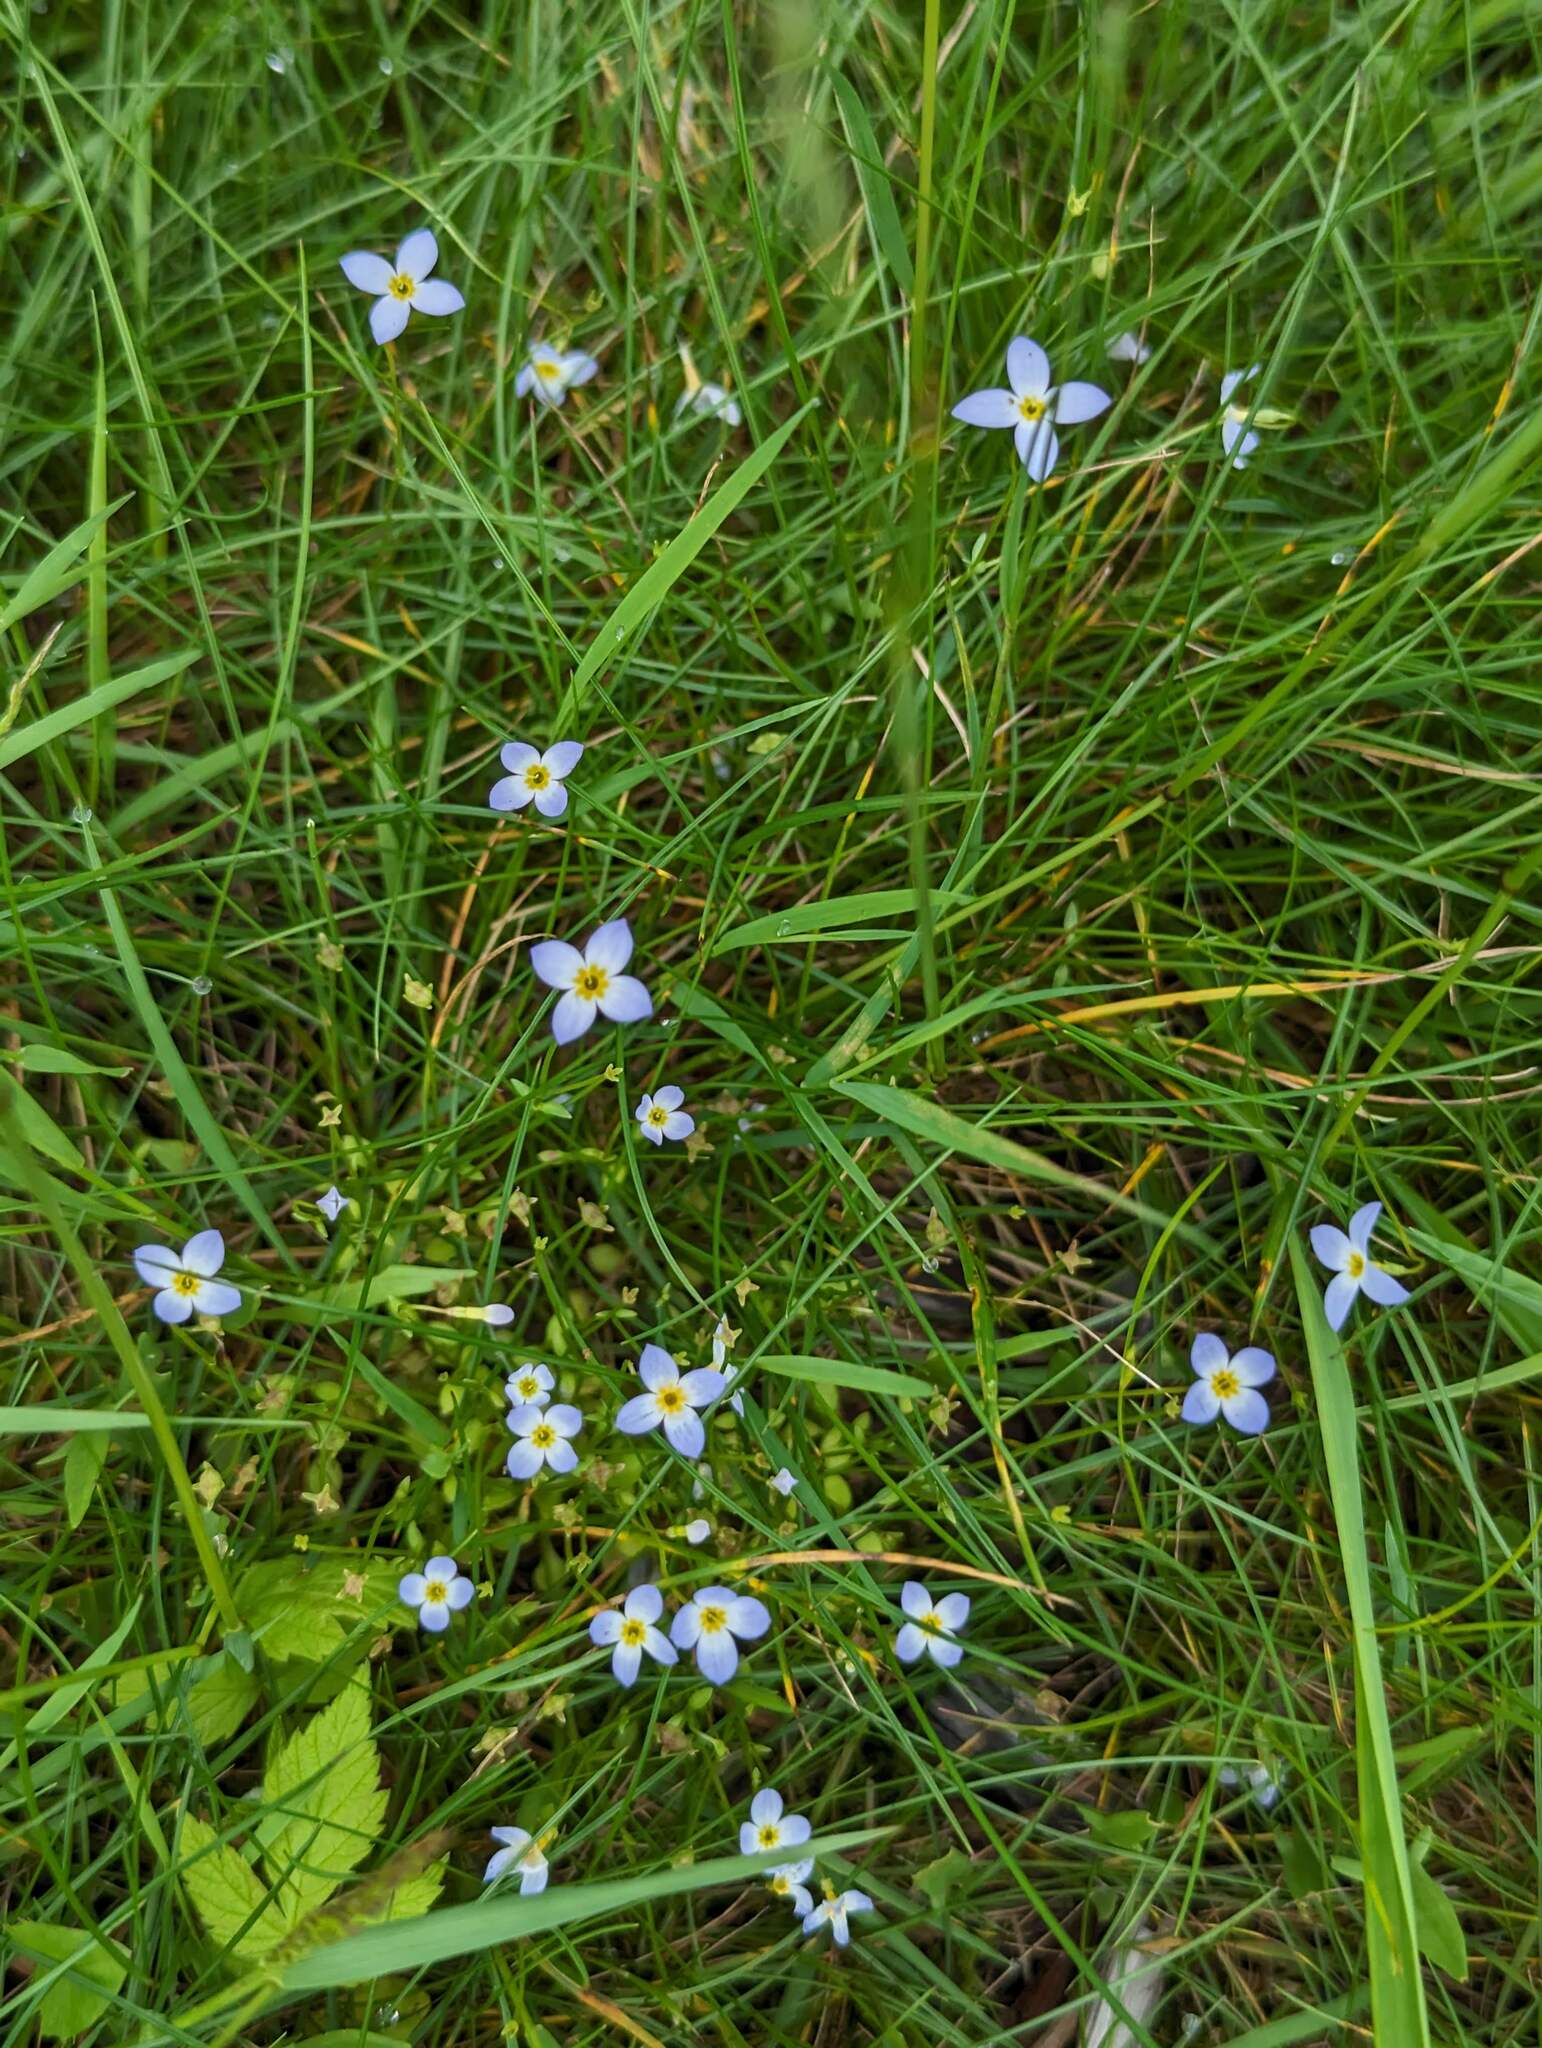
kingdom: Plantae
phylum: Tracheophyta
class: Magnoliopsida
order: Gentianales
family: Rubiaceae
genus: Houstonia
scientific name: Houstonia caerulea
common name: Bluets
